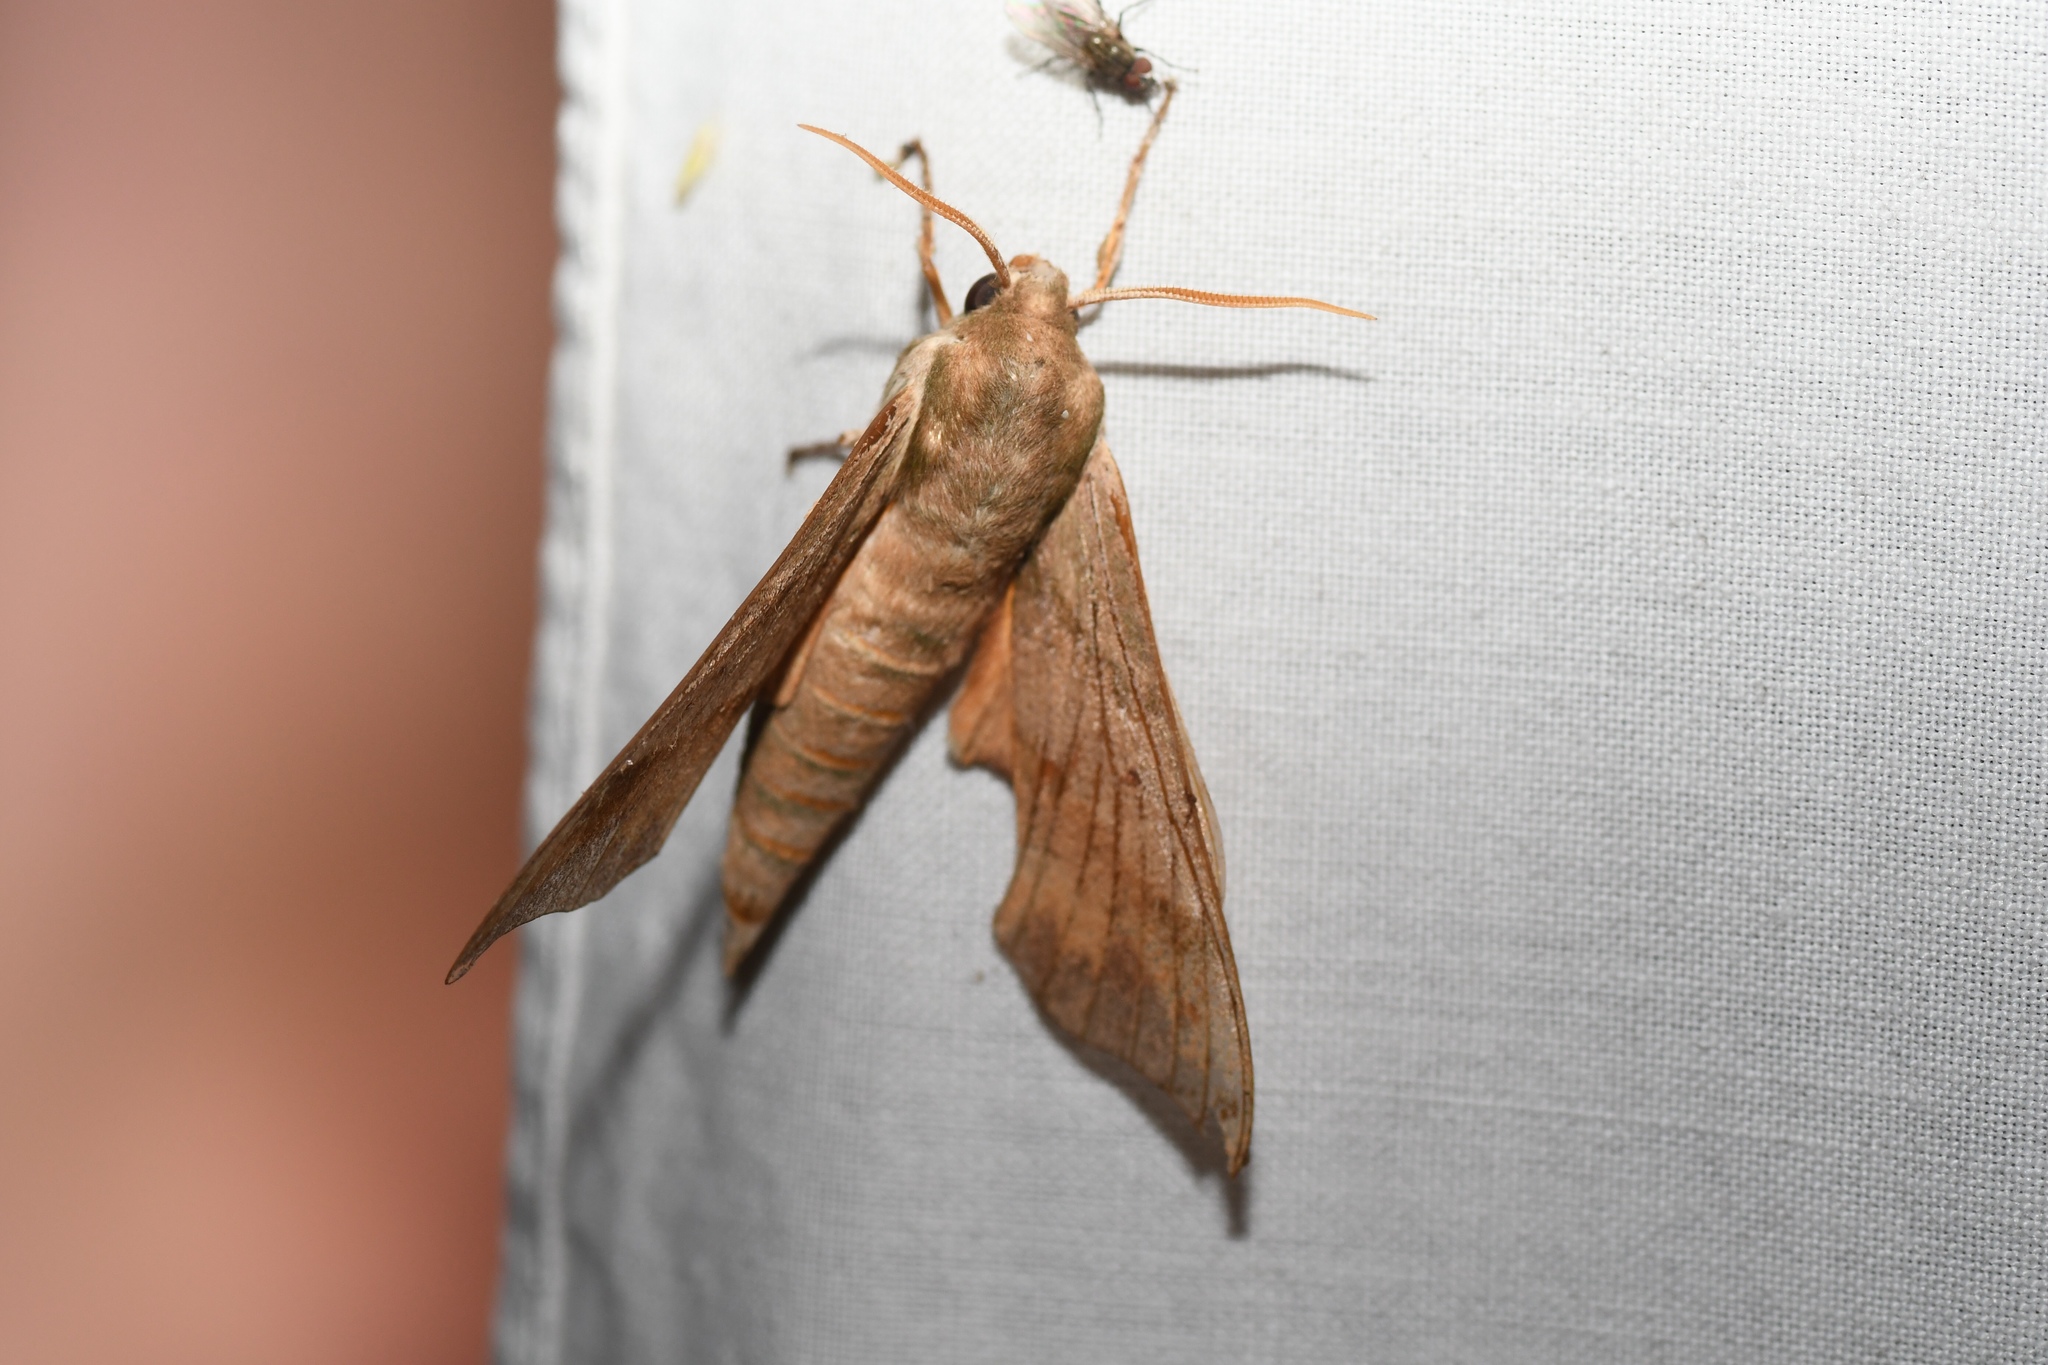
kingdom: Animalia
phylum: Arthropoda
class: Insecta
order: Lepidoptera
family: Sphingidae
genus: Darapsa
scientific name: Darapsa myron
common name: Hog sphinx
